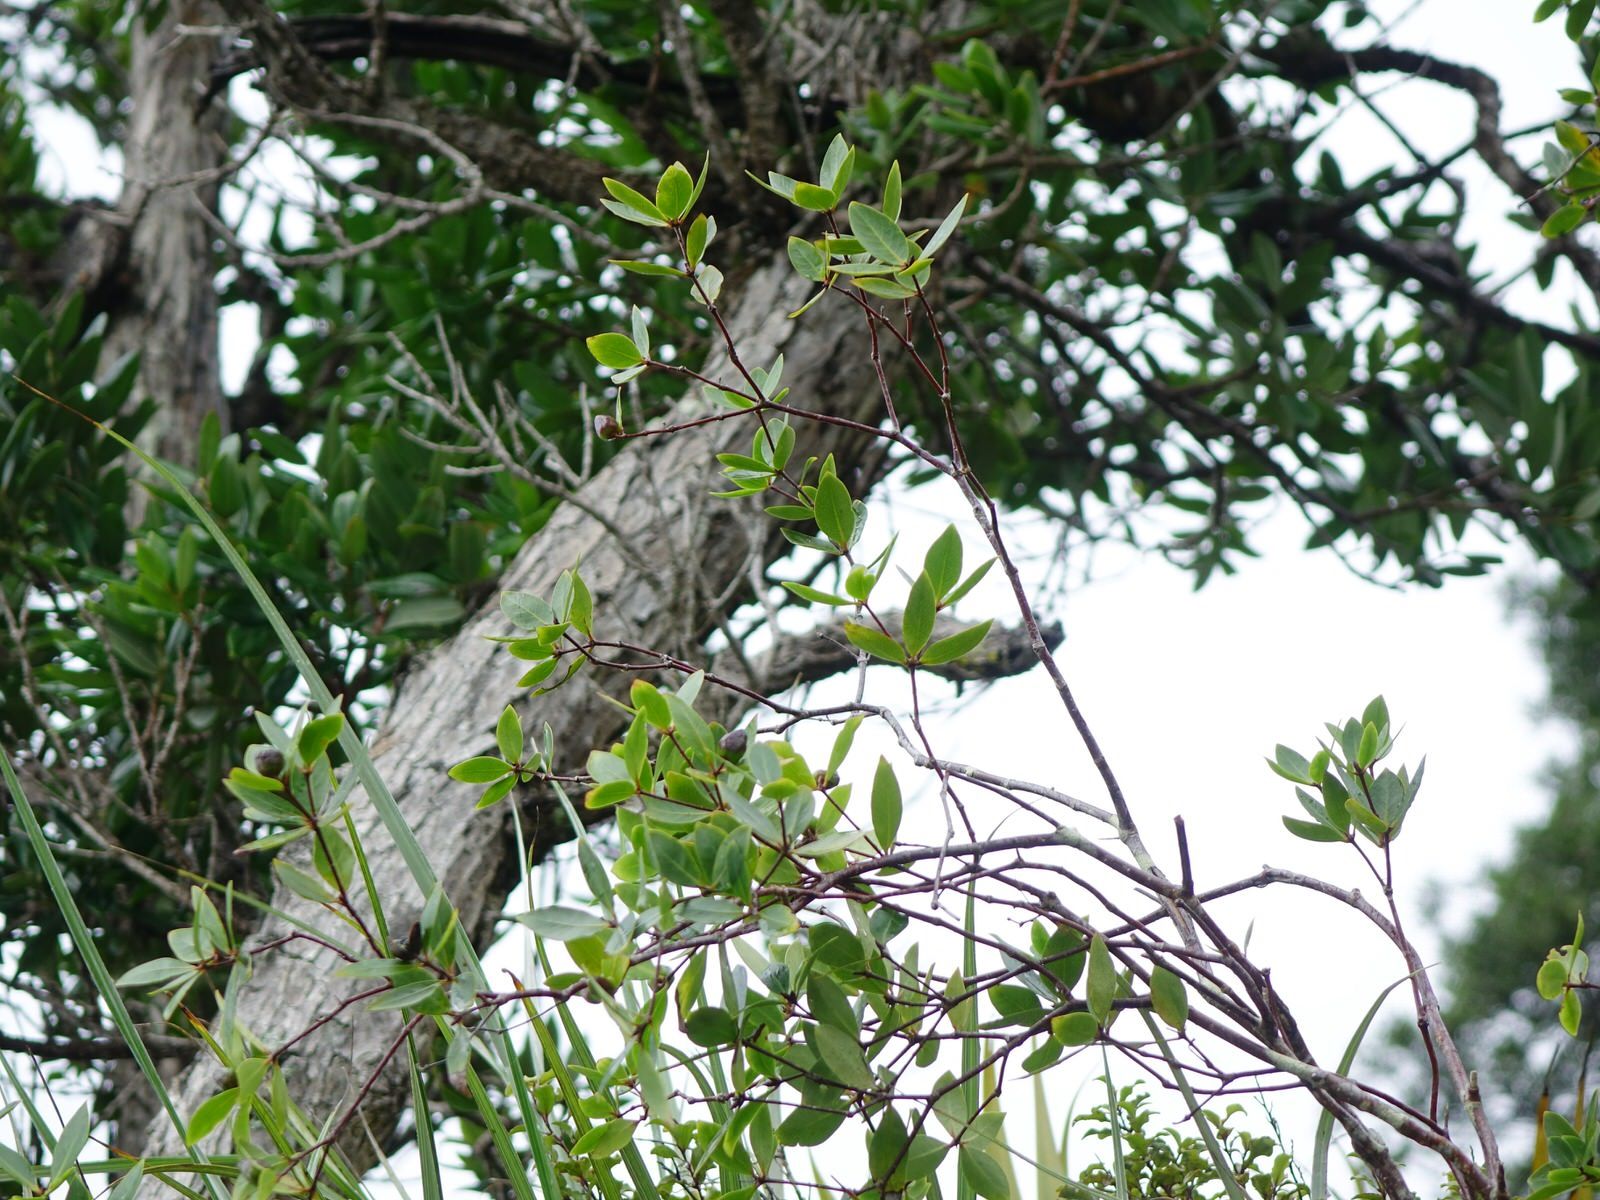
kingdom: Plantae
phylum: Tracheophyta
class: Magnoliopsida
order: Apiales
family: Pittosporaceae
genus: Pittosporum
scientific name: Pittosporum cornifolium
